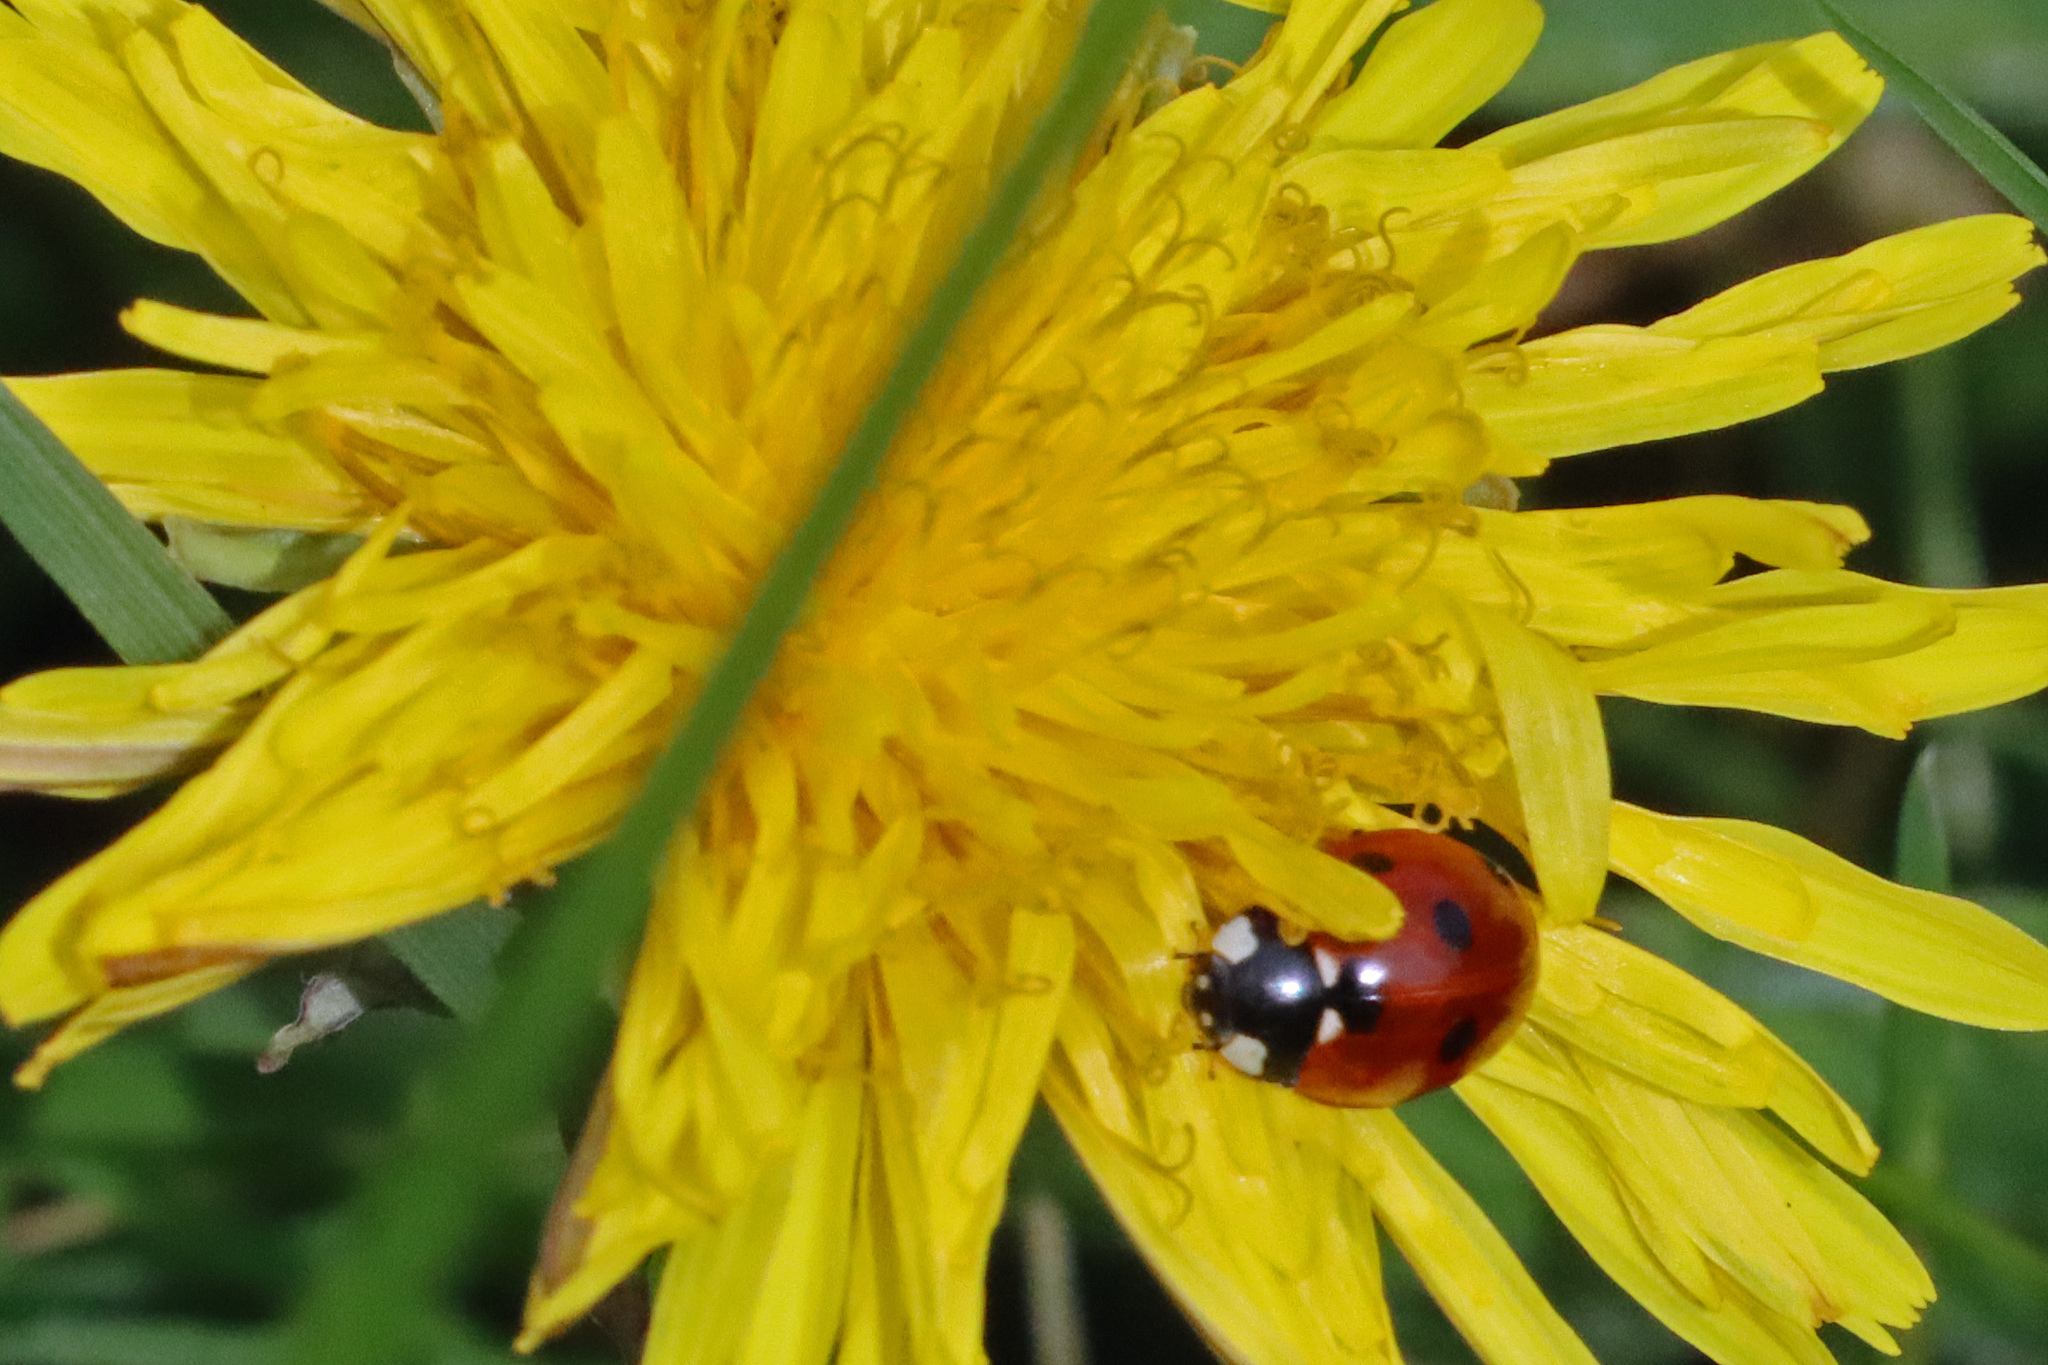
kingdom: Animalia
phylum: Arthropoda
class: Insecta
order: Coleoptera
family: Coccinellidae
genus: Coccinella
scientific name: Coccinella septempunctata
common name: Sevenspotted lady beetle
